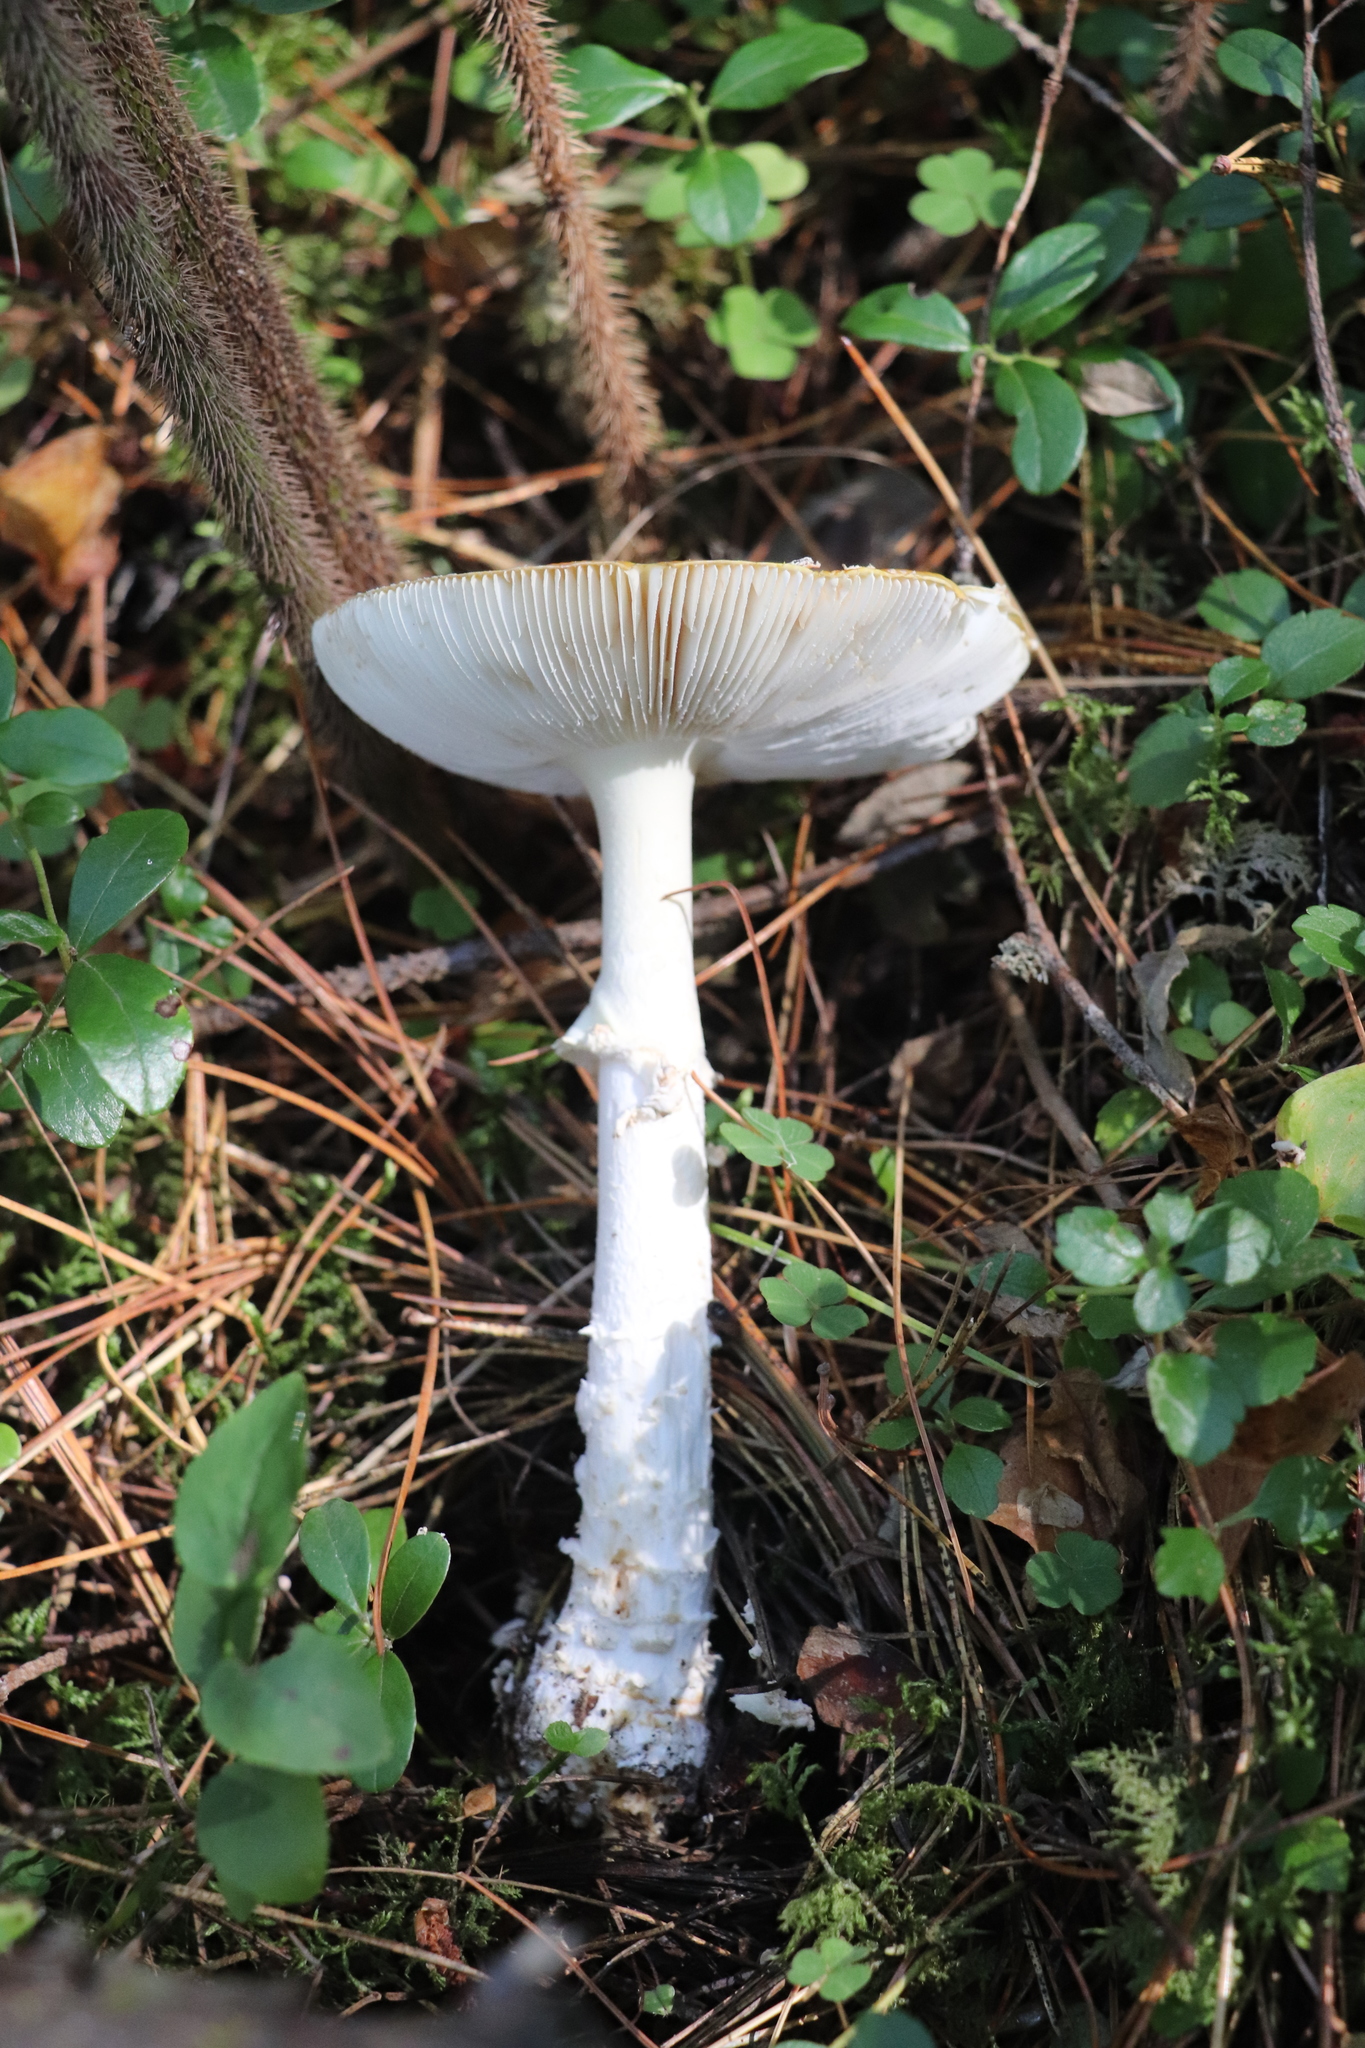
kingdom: Fungi
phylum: Basidiomycota
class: Agaricomycetes
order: Agaricales
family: Amanitaceae
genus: Amanita
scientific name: Amanita muscaria
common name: Fly agaric
